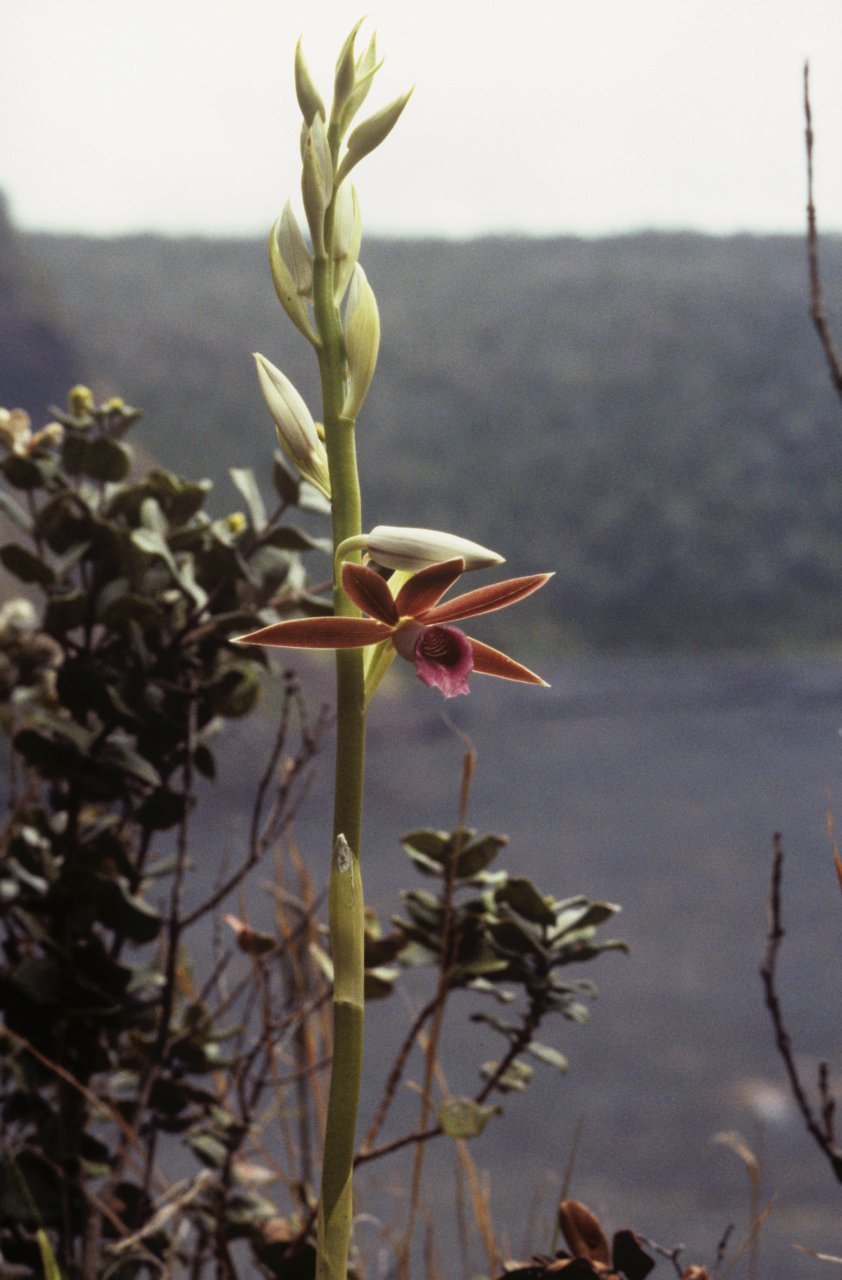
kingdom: Plantae
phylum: Tracheophyta
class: Liliopsida
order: Asparagales
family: Orchidaceae
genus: Calanthe
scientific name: Calanthe tankervilleae
